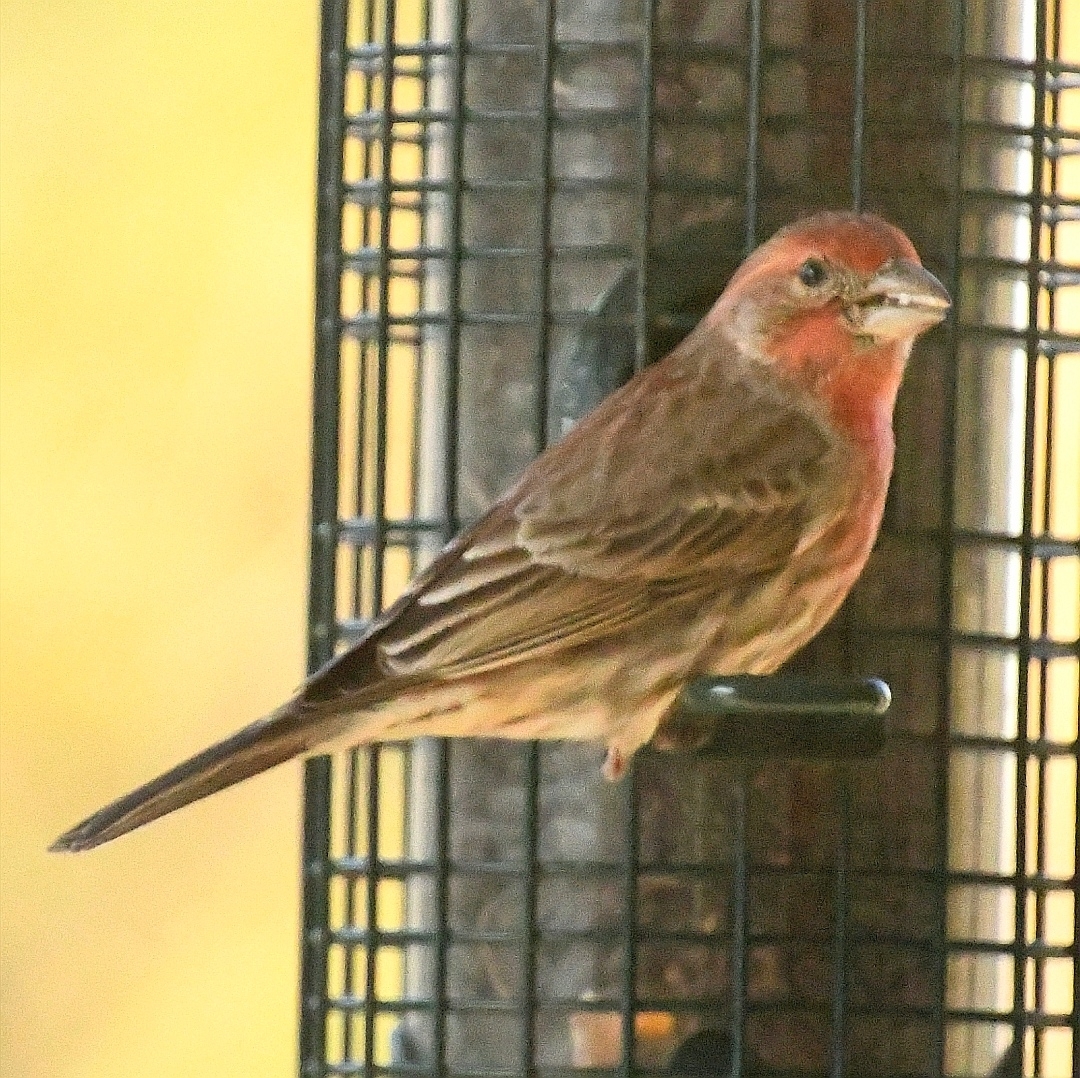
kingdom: Animalia
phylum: Chordata
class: Aves
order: Passeriformes
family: Fringillidae
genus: Haemorhous
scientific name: Haemorhous mexicanus
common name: House finch
